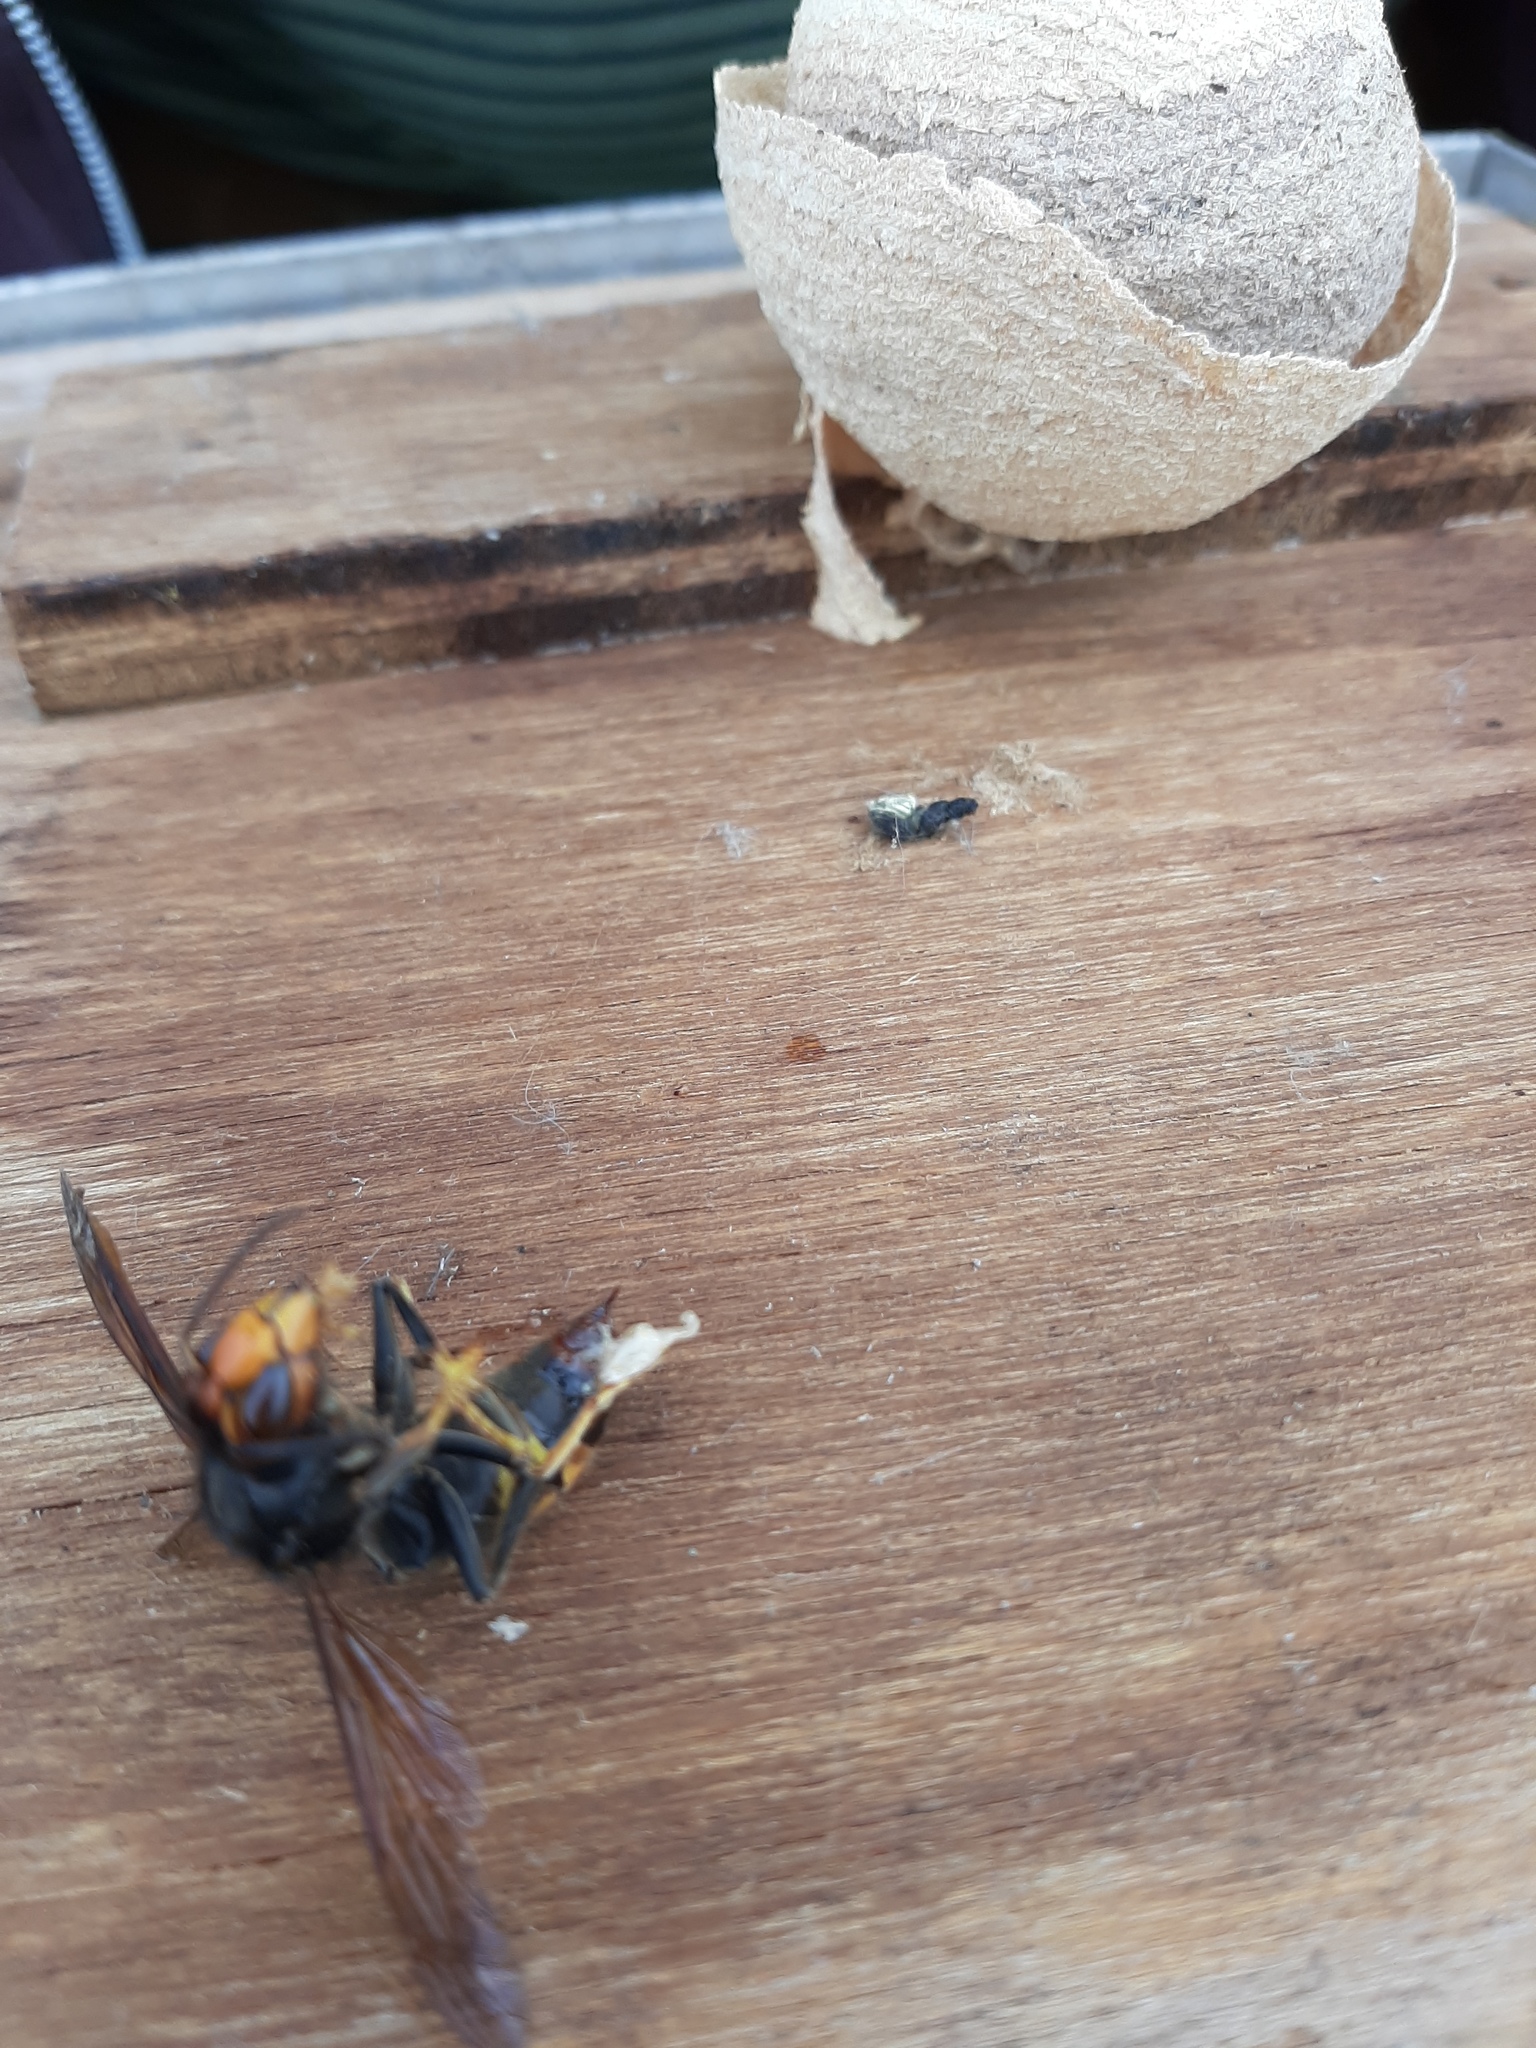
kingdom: Animalia
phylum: Arthropoda
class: Insecta
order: Hymenoptera
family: Vespidae
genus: Vespa
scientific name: Vespa velutina
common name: Asian hornet
